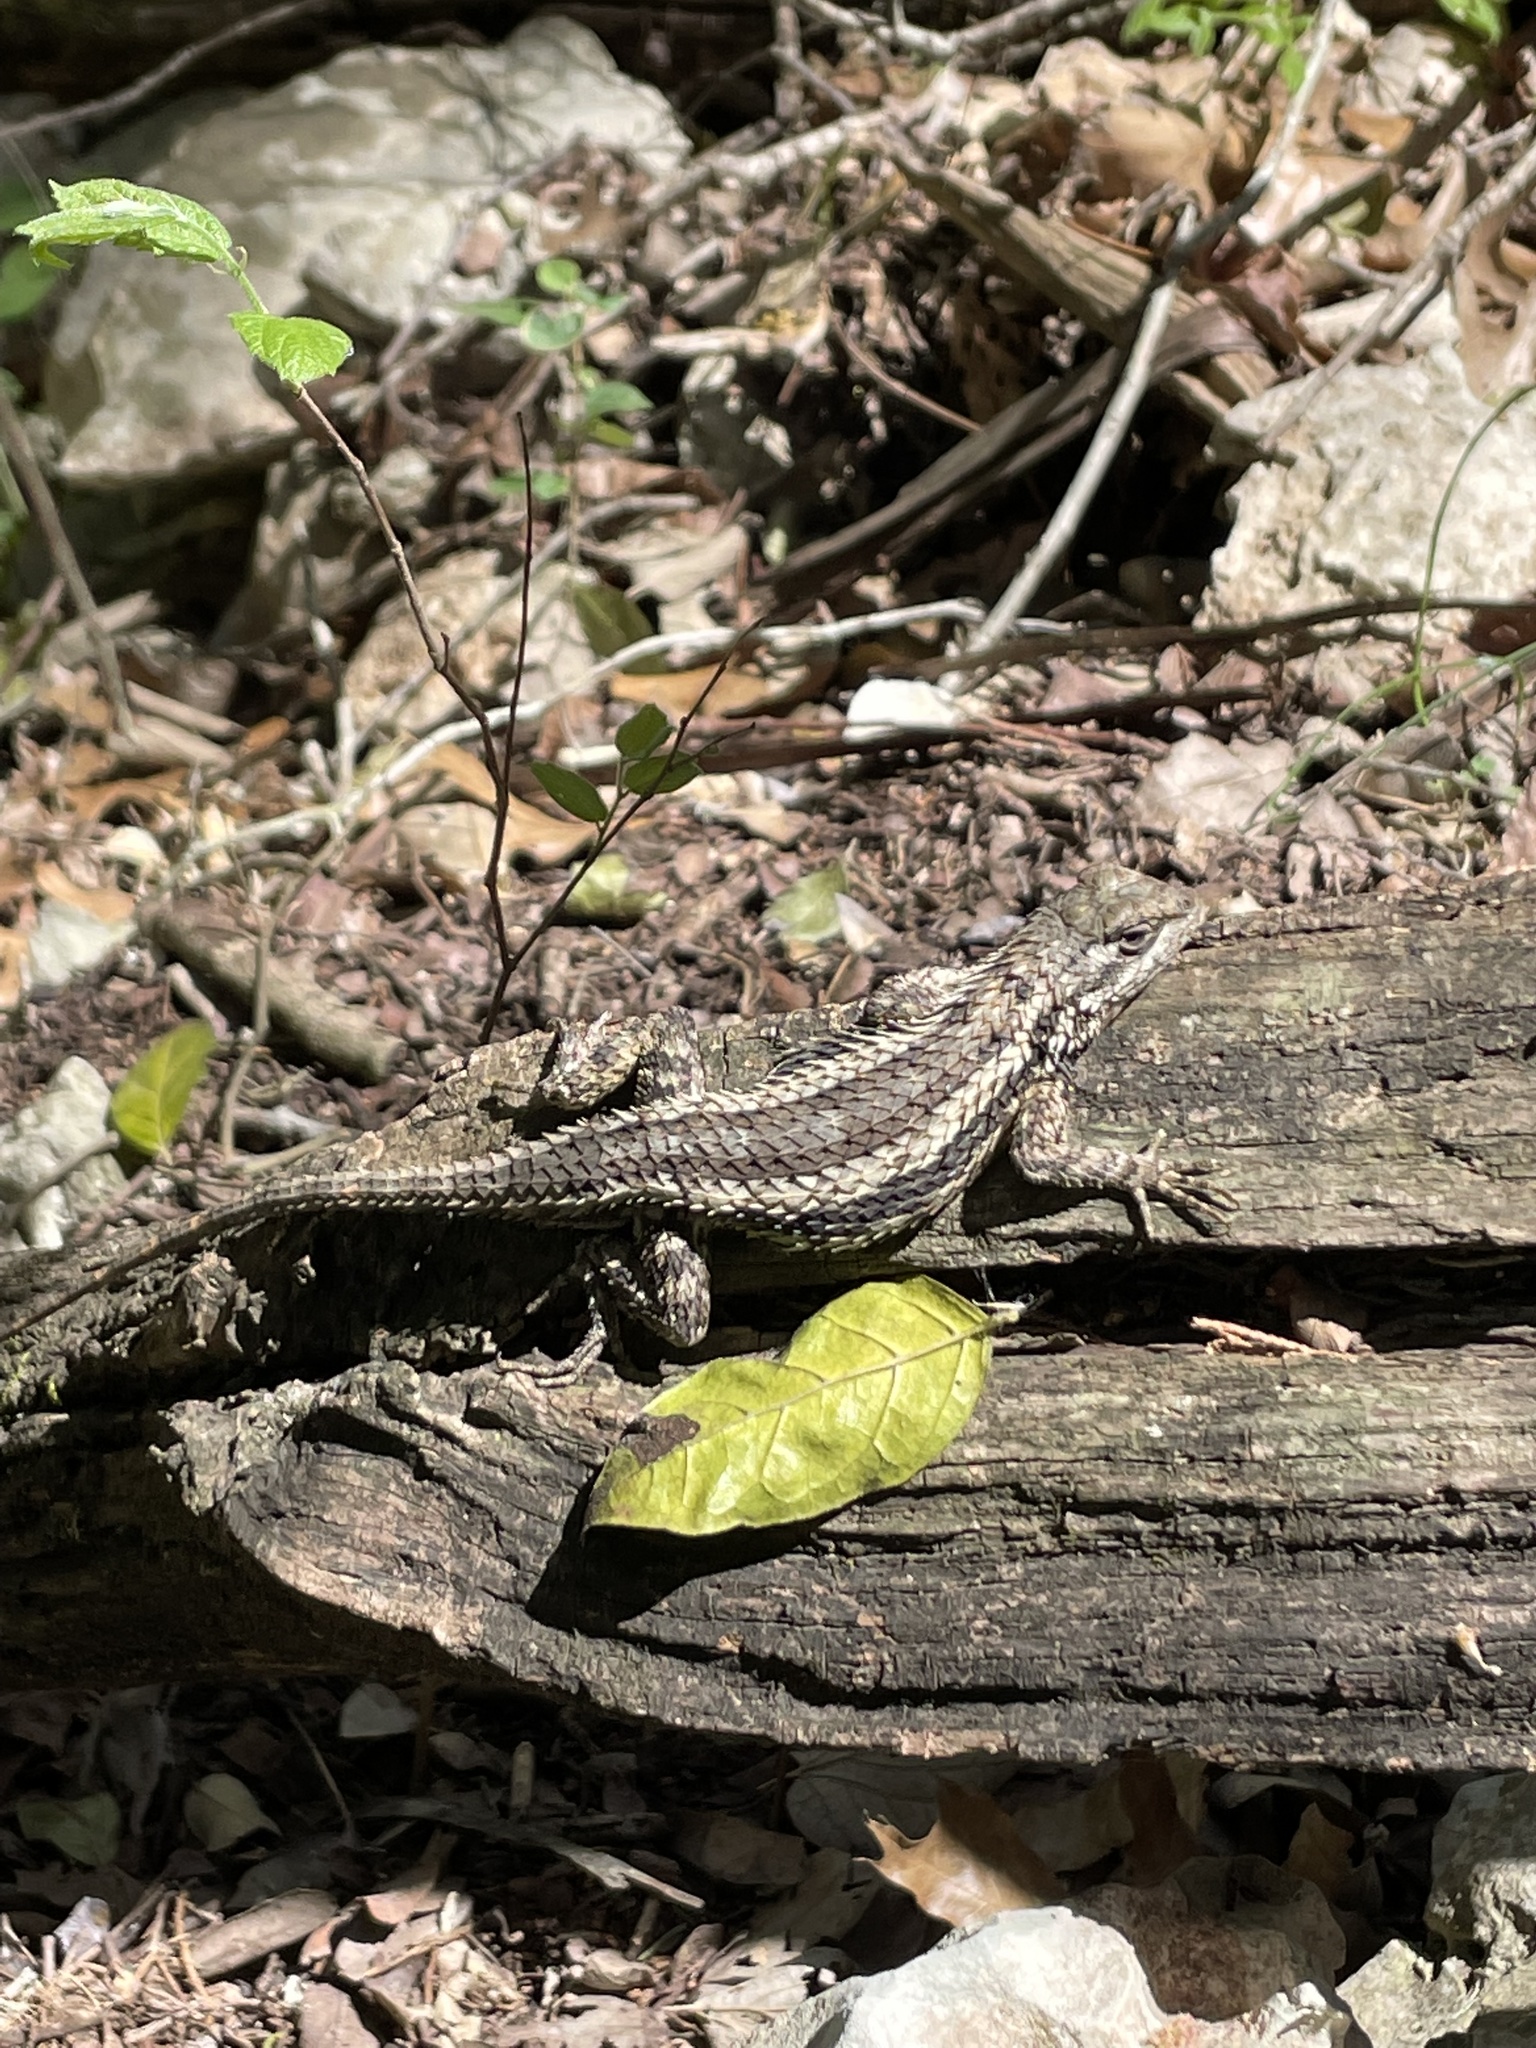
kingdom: Animalia
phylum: Chordata
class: Squamata
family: Phrynosomatidae
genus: Sceloporus
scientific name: Sceloporus olivaceus
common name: Texas spiny lizard
